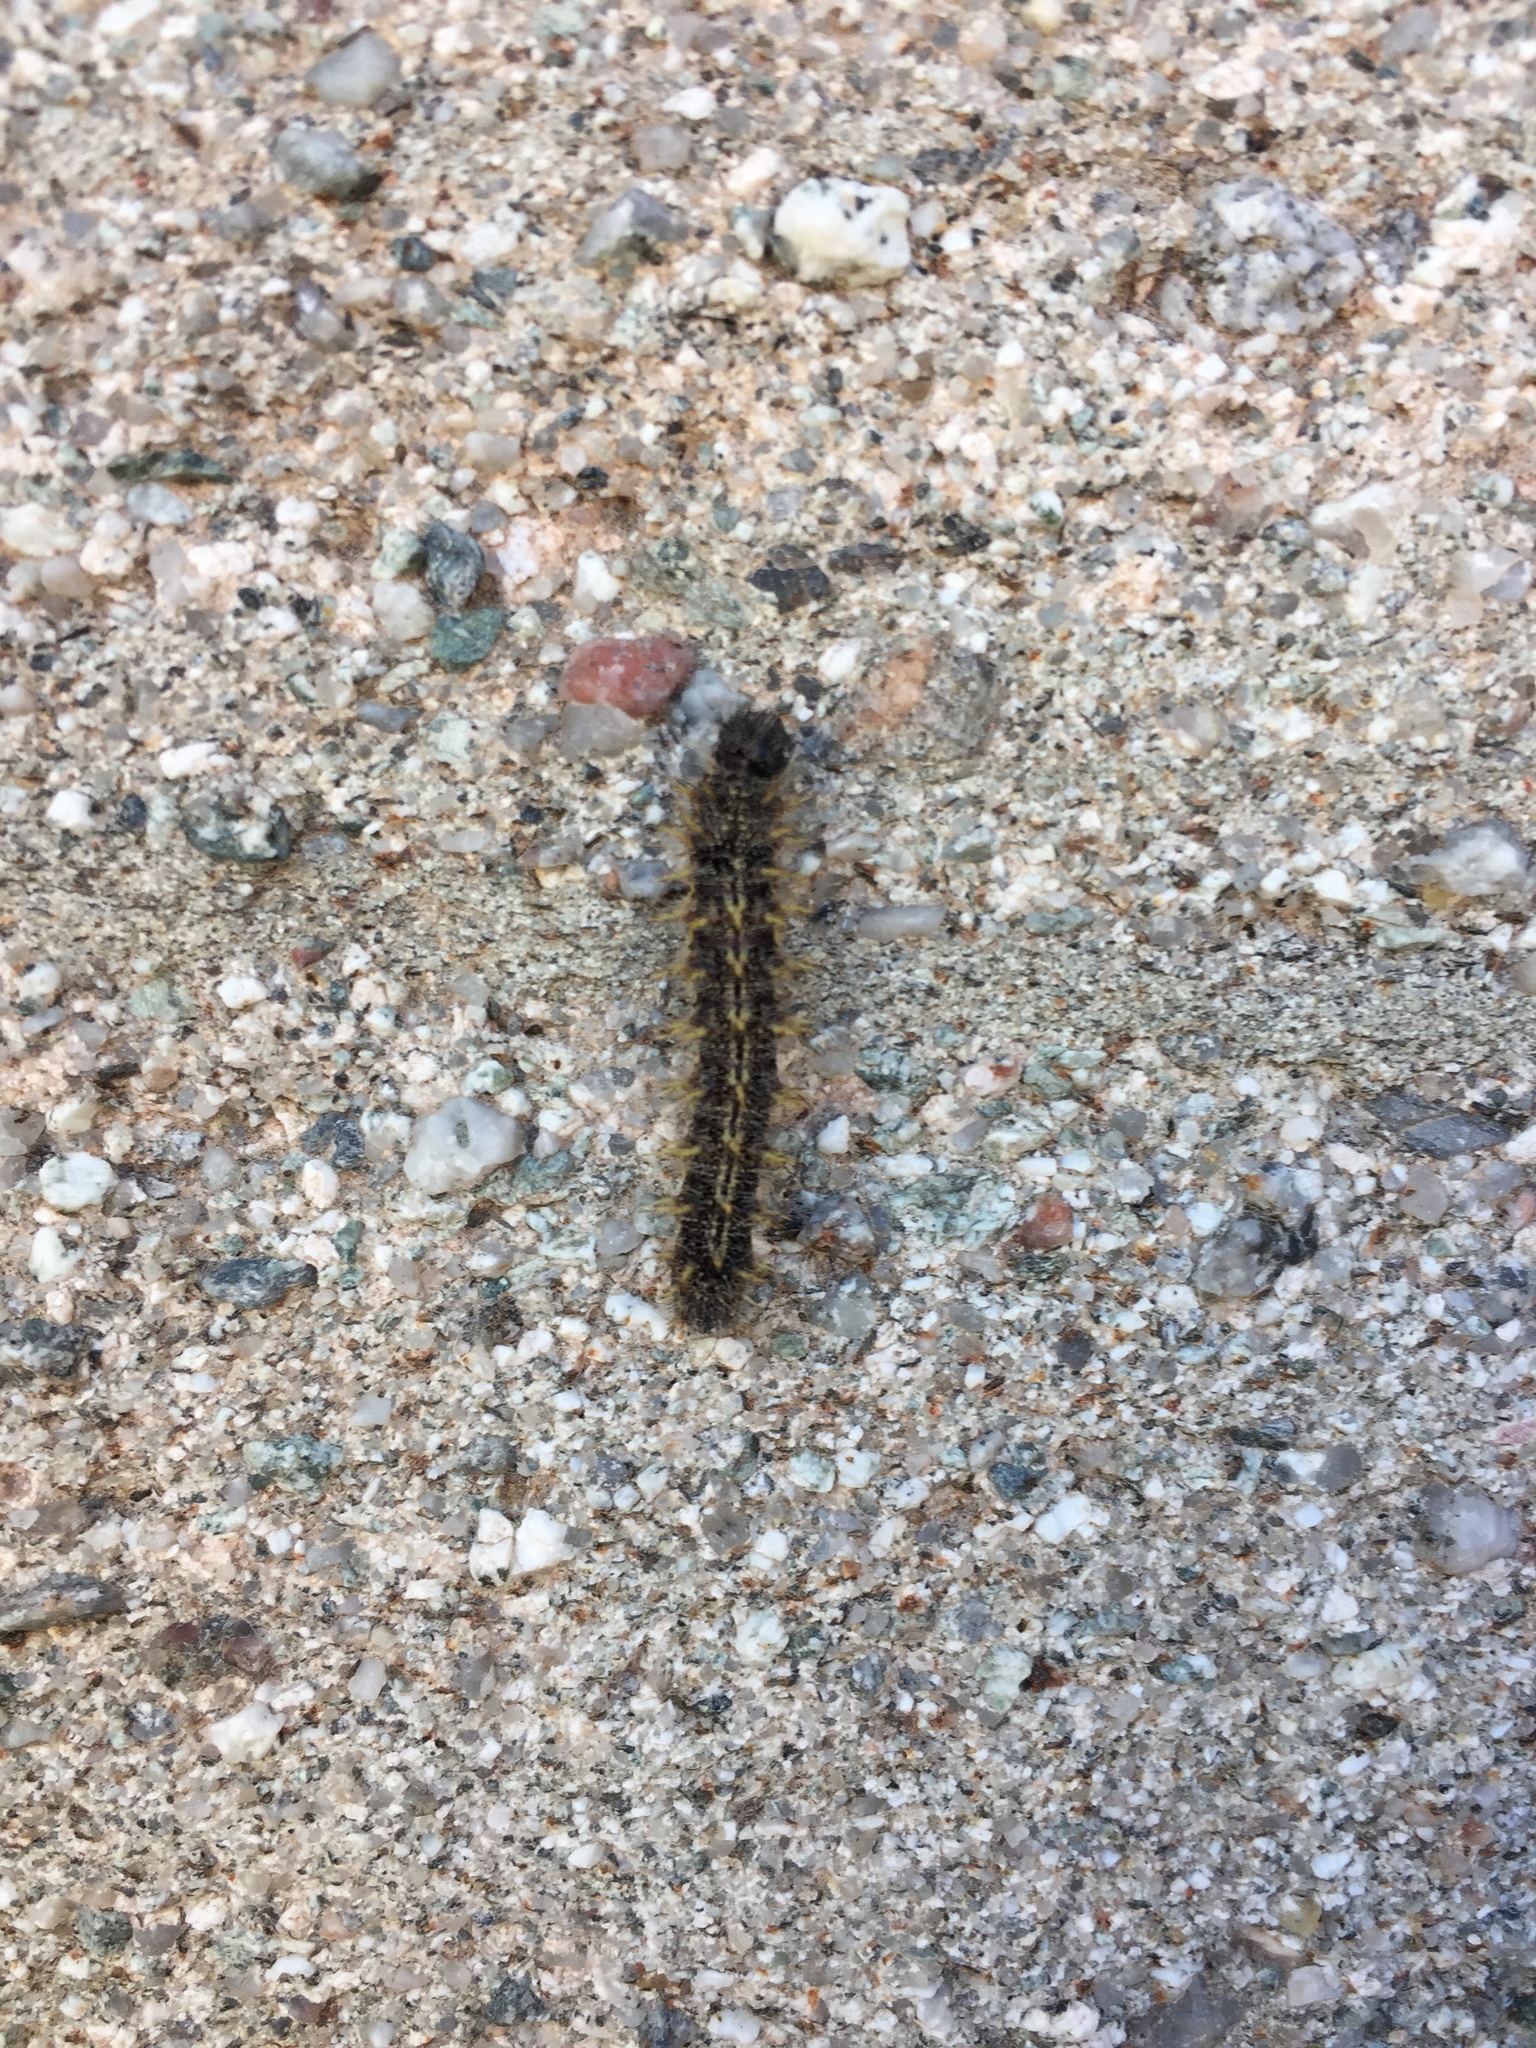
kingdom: Animalia
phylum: Arthropoda
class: Insecta
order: Lepidoptera
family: Nymphalidae
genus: Vanessa
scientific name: Vanessa cardui
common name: Painted lady
